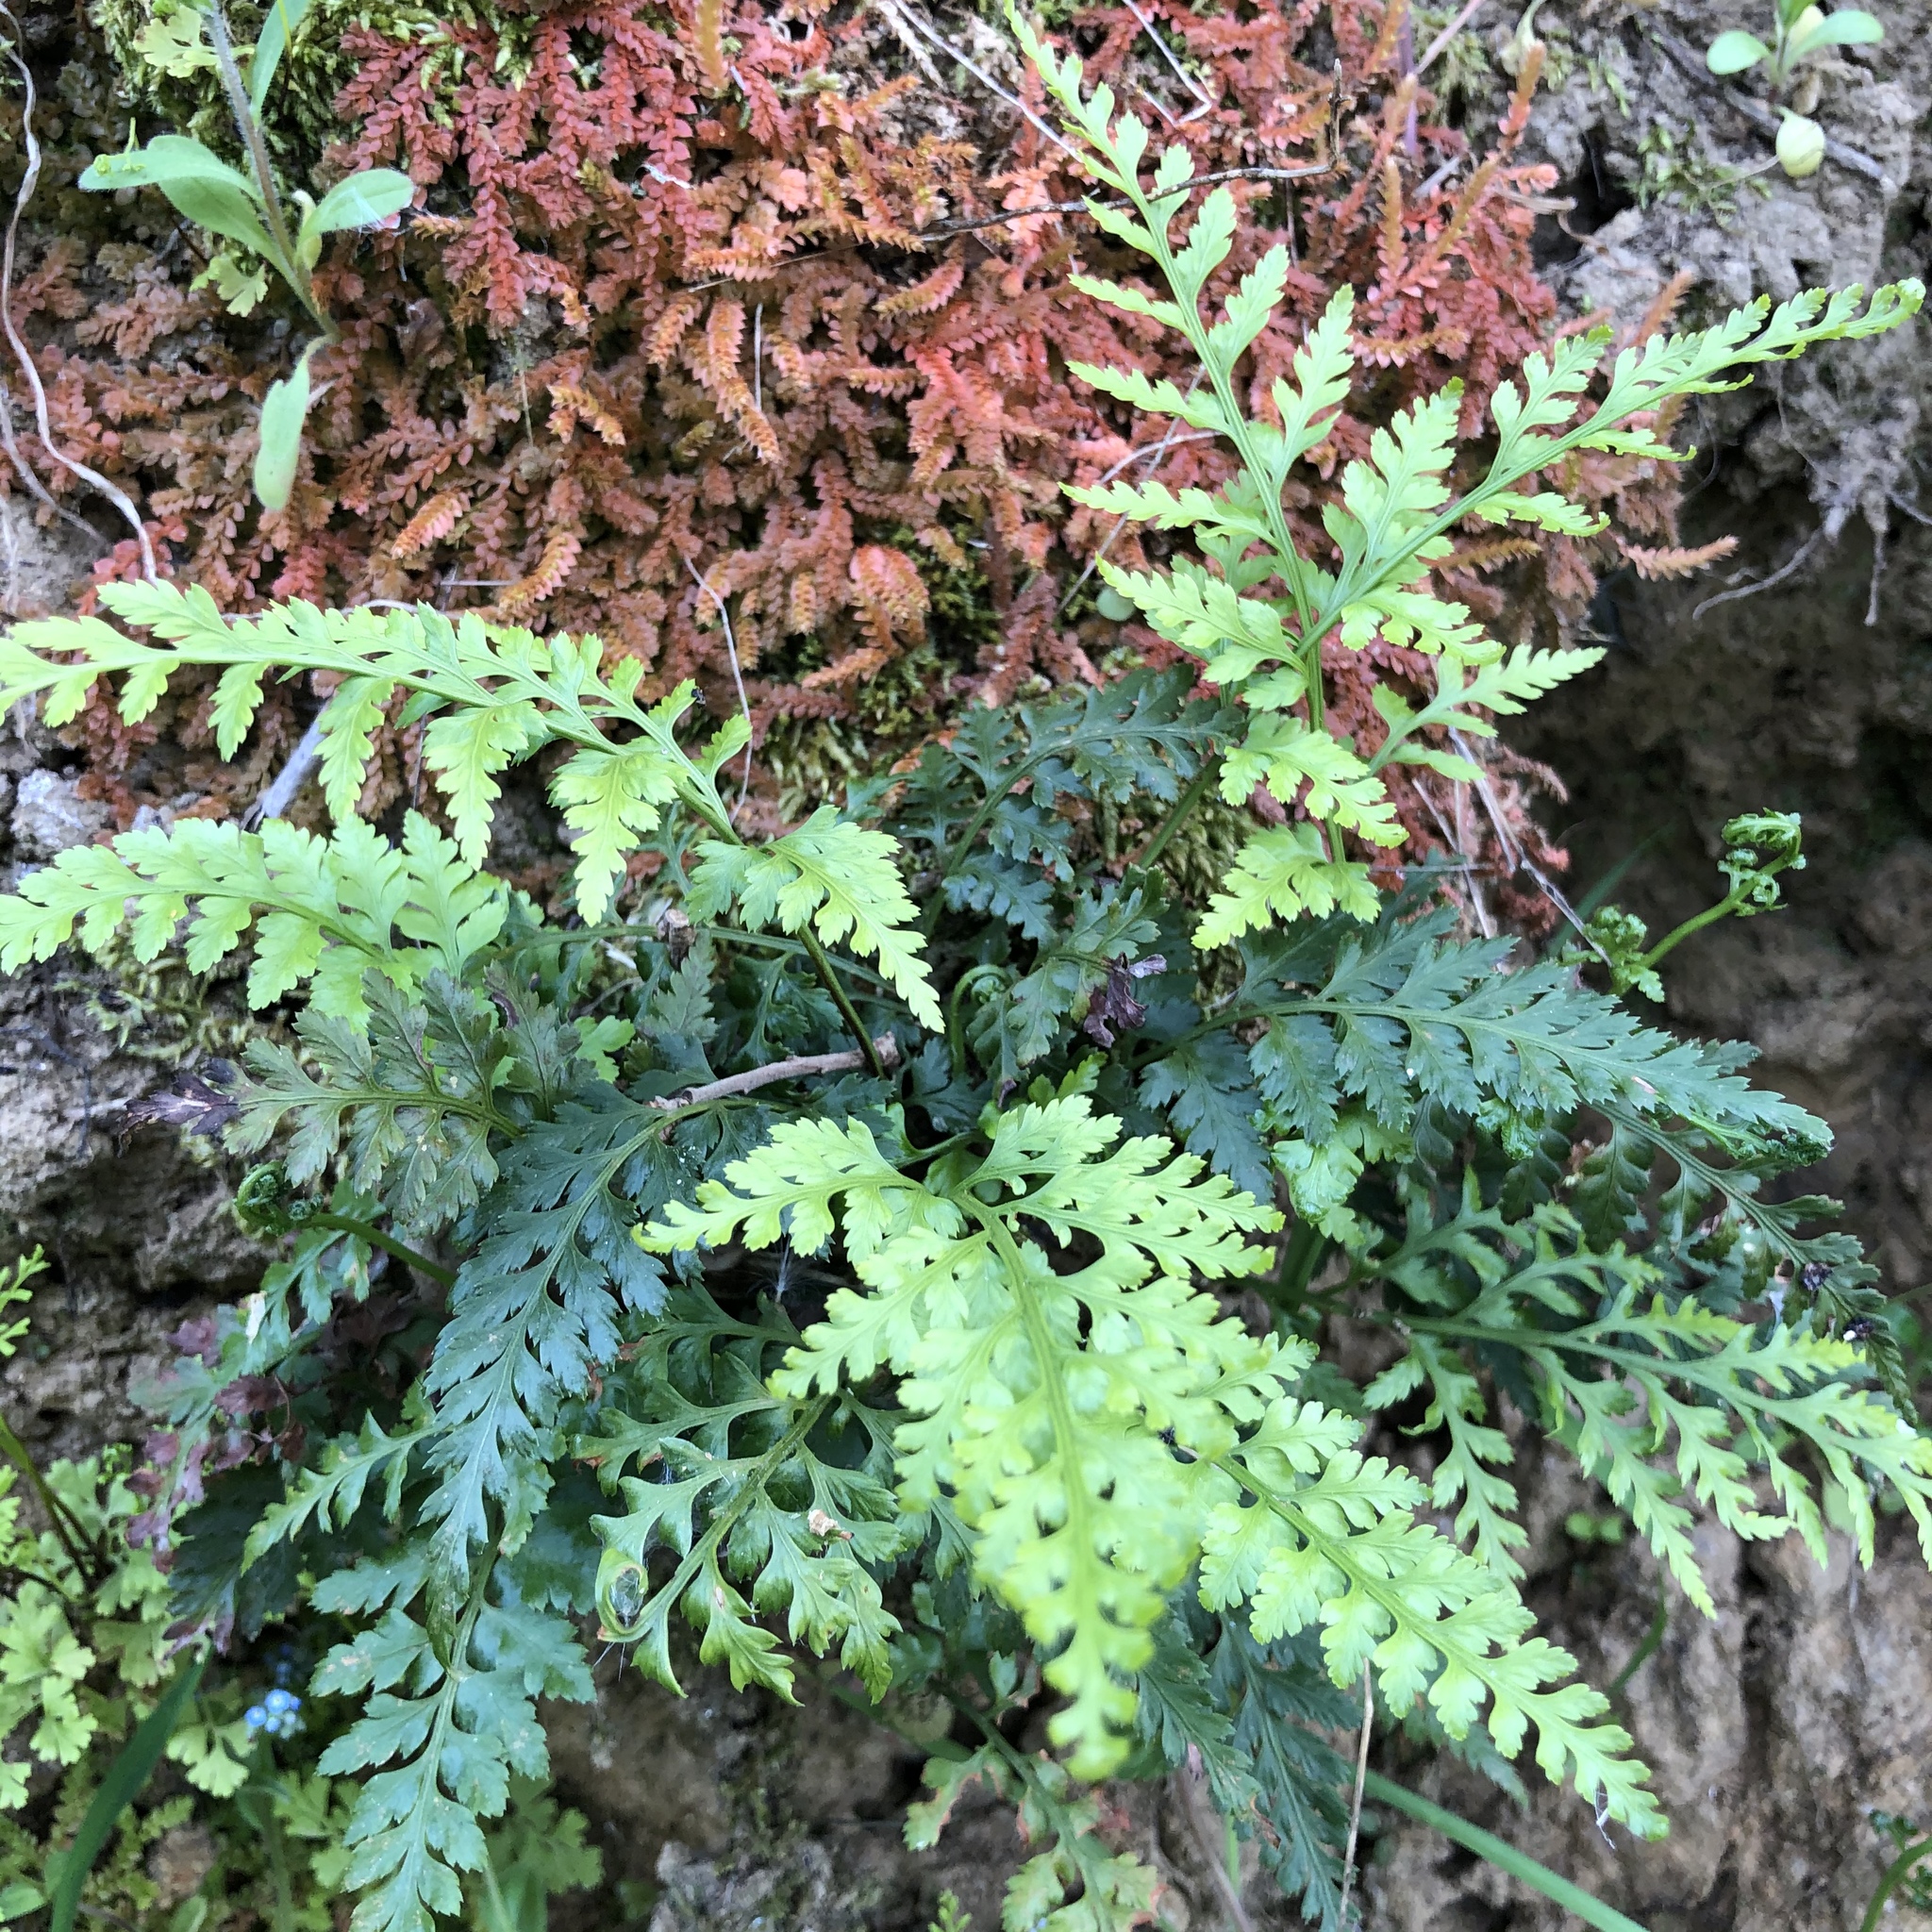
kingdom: Plantae
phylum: Tracheophyta
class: Polypodiopsida
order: Polypodiales
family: Aspleniaceae
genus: Asplenium
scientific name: Asplenium onopteris
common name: Irish spleenwort
